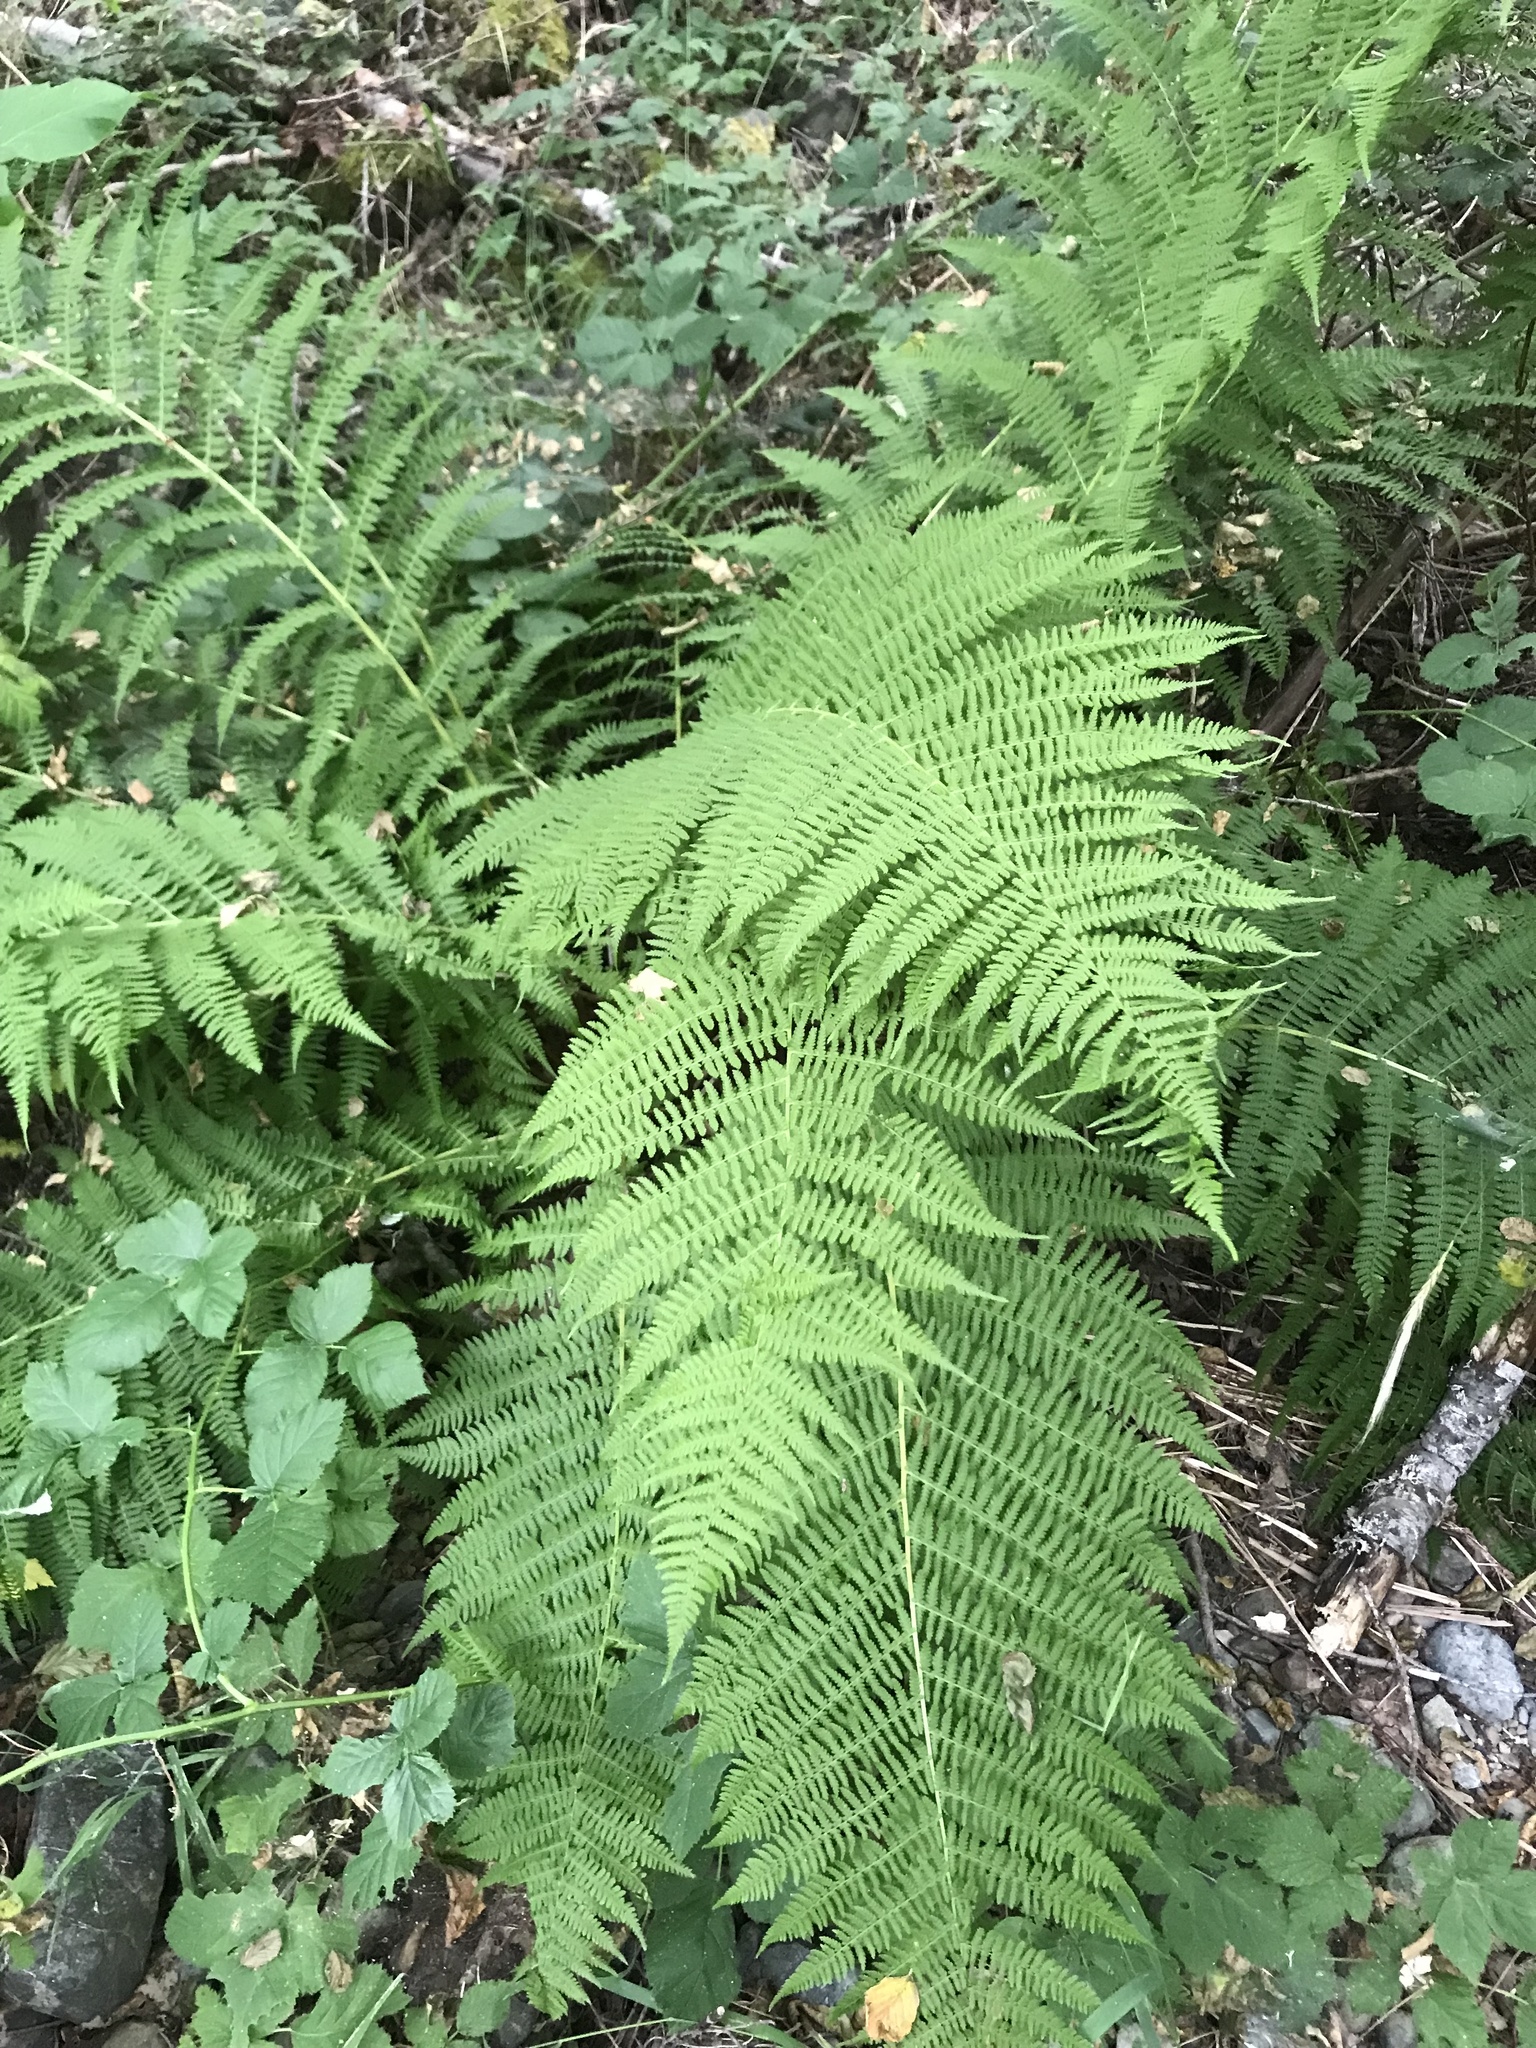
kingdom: Plantae
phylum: Tracheophyta
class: Polypodiopsida
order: Polypodiales
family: Athyriaceae
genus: Athyrium
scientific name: Athyrium filix-femina
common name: Lady fern
